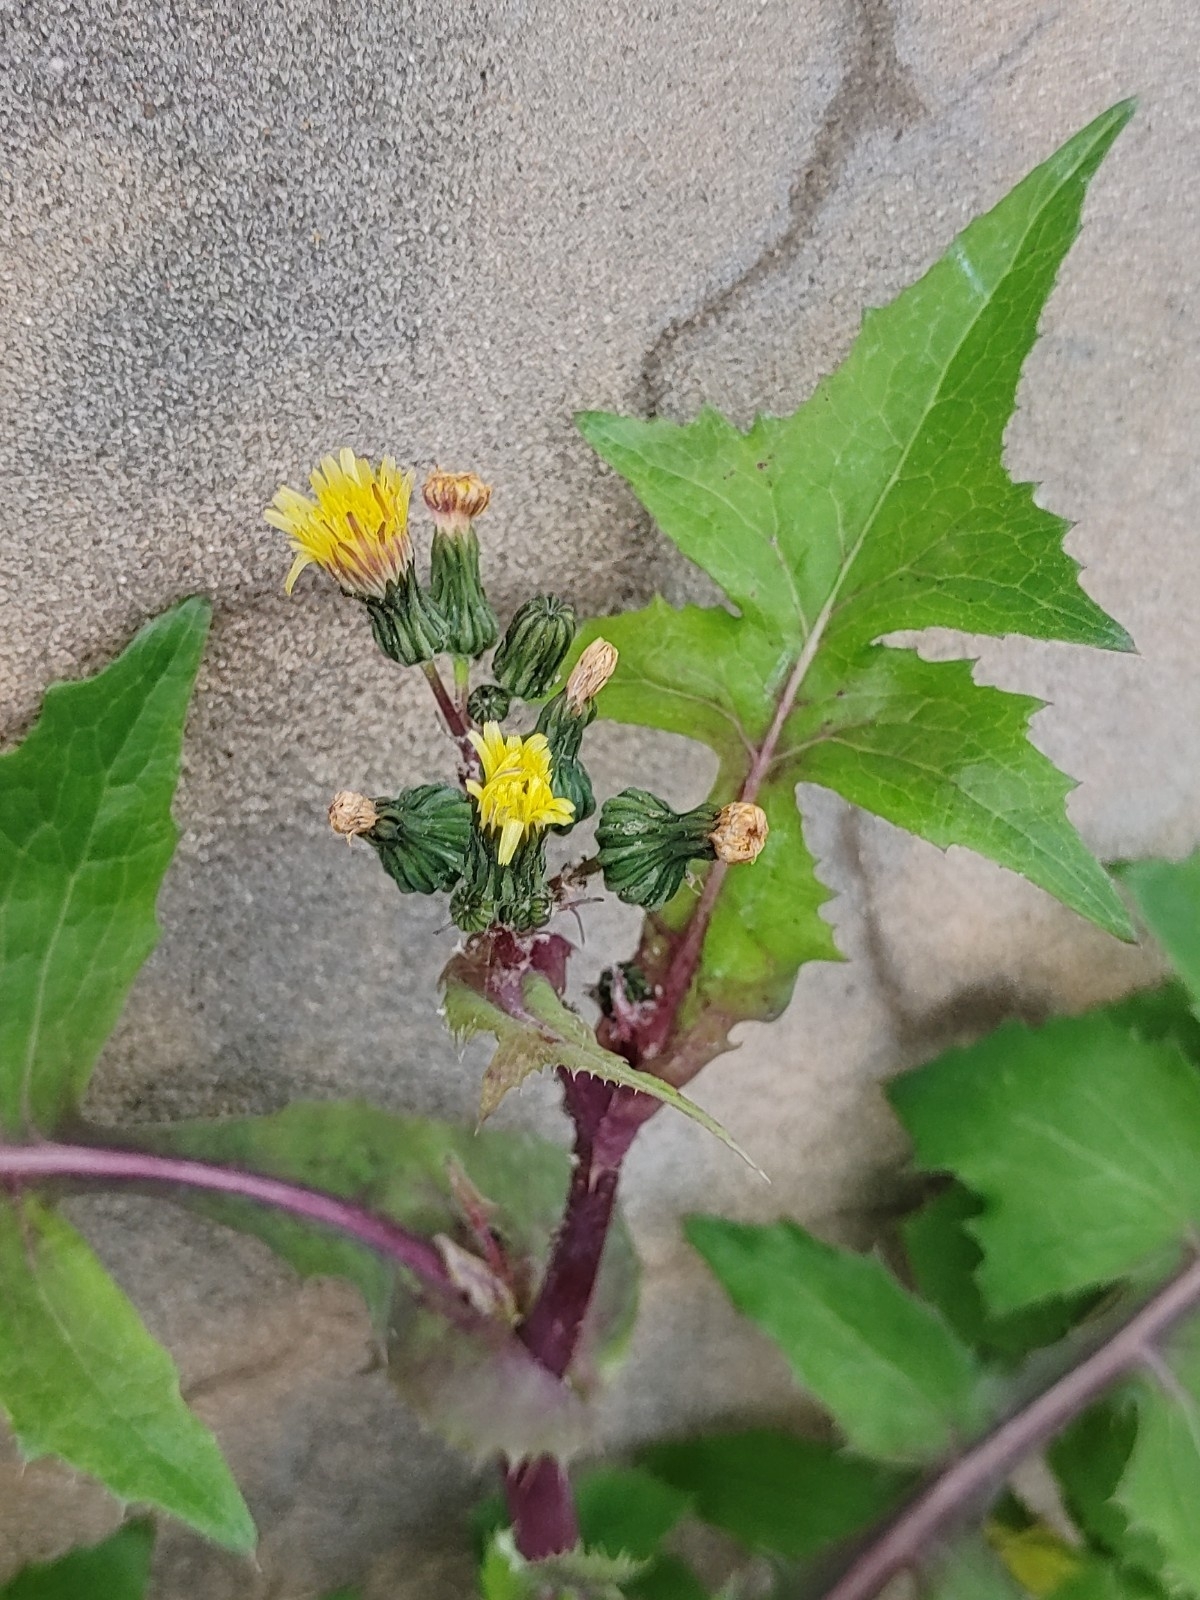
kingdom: Plantae
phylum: Tracheophyta
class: Magnoliopsida
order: Asterales
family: Asteraceae
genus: Sonchus
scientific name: Sonchus oleraceus
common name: Common sowthistle
